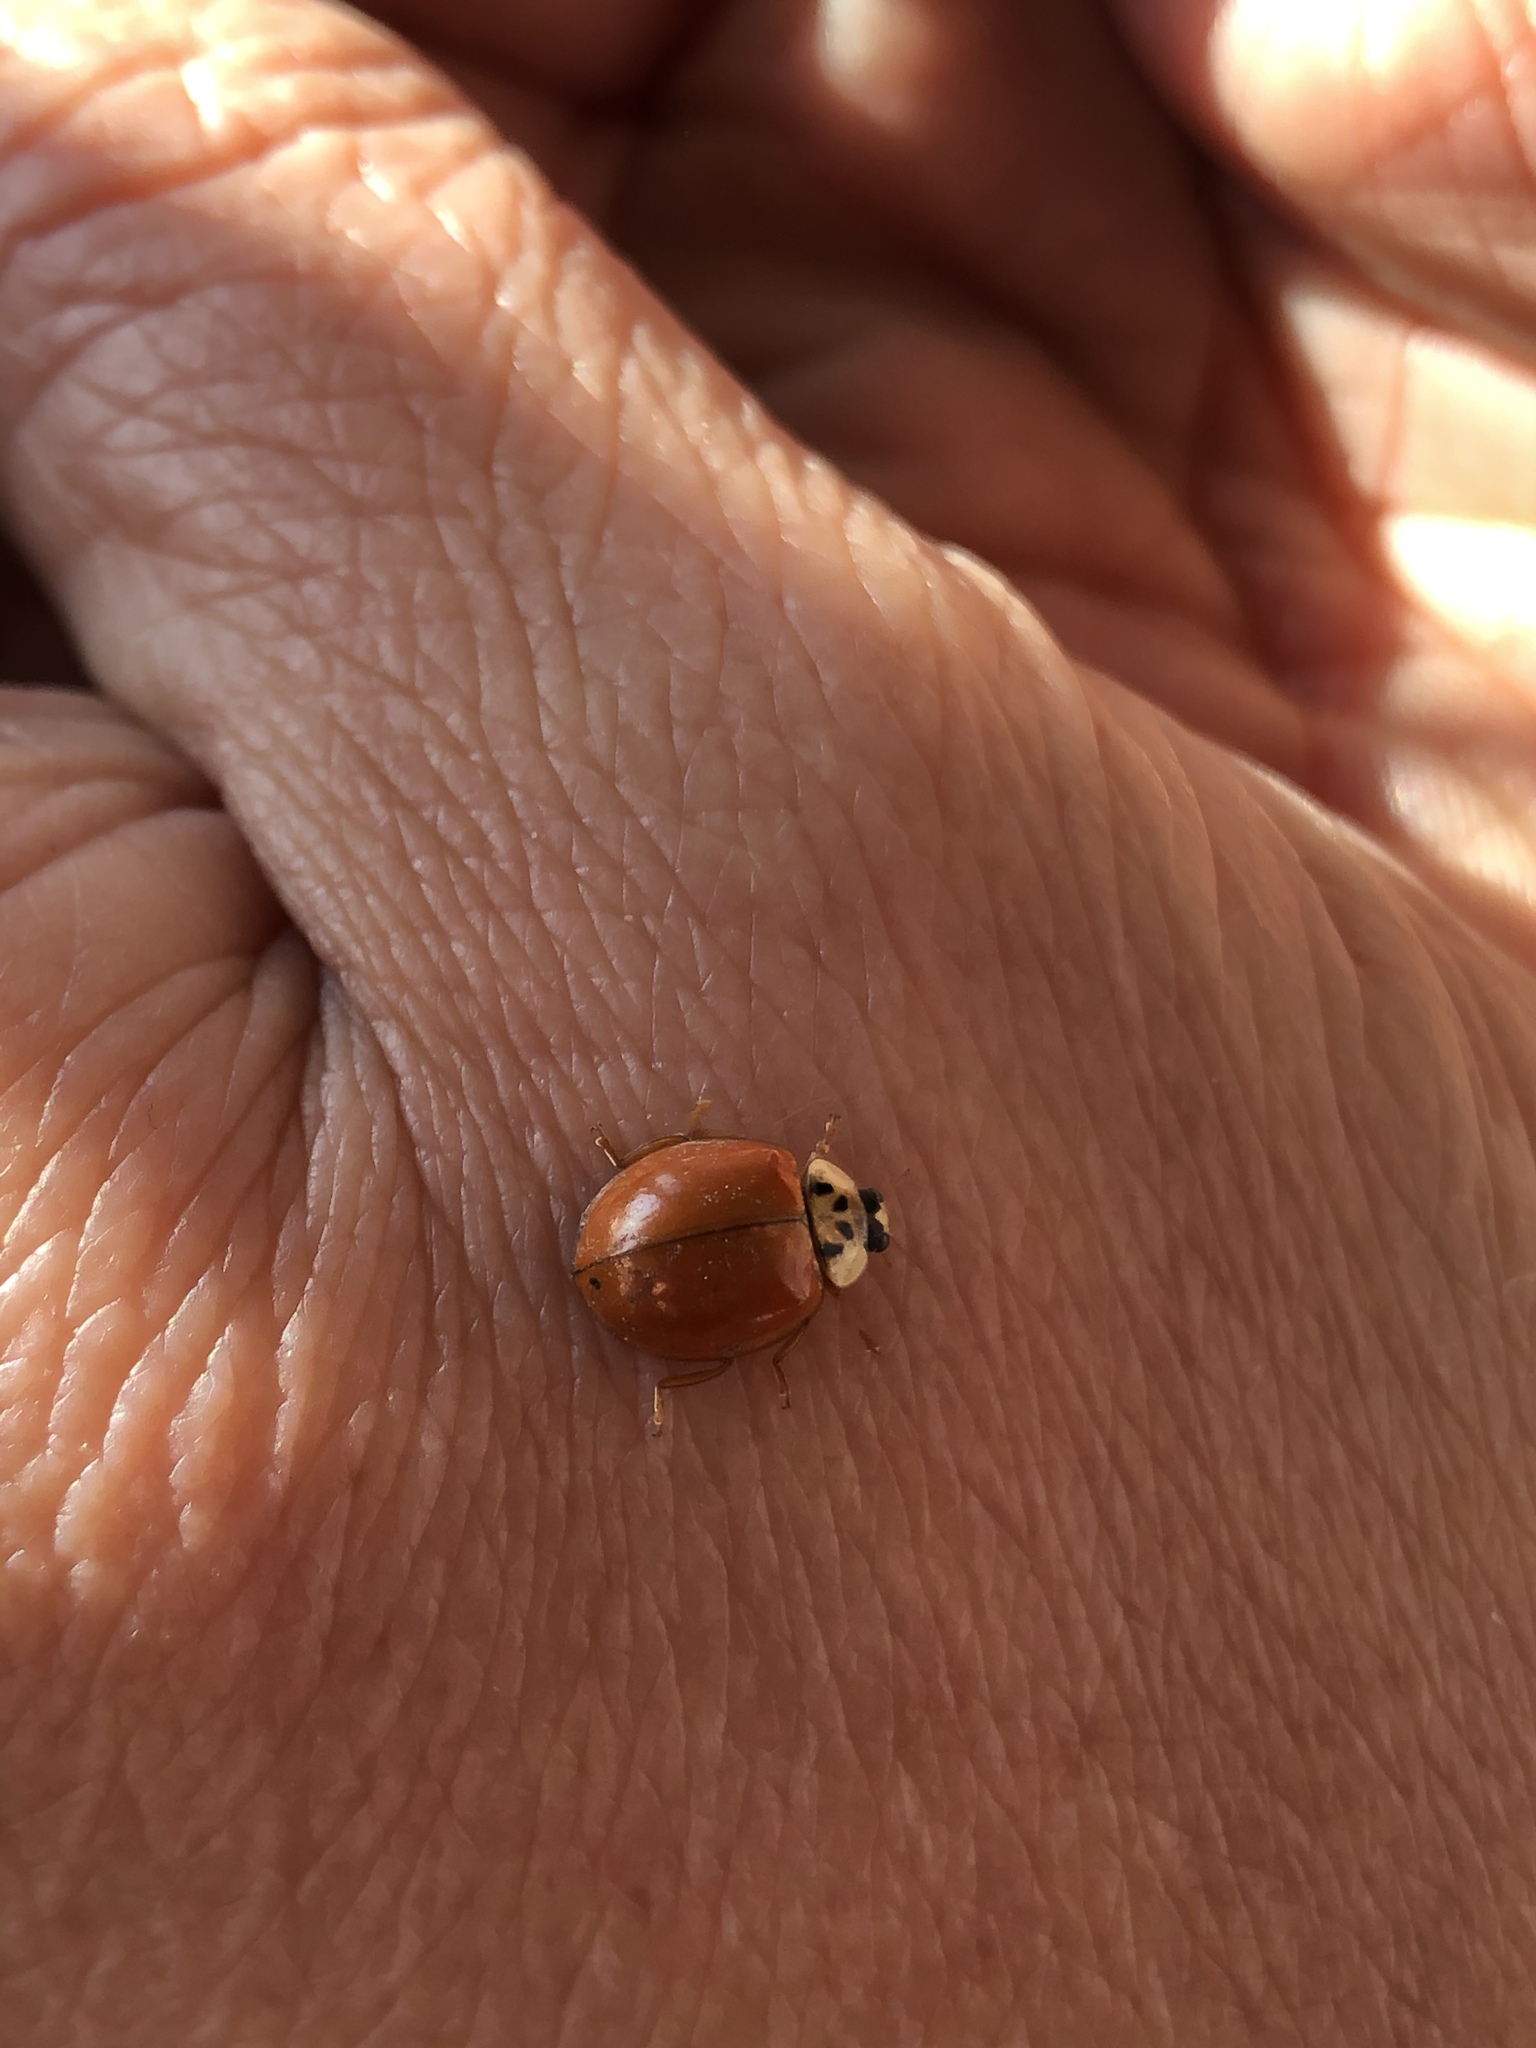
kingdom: Animalia
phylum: Arthropoda
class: Insecta
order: Coleoptera
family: Coccinellidae
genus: Harmonia
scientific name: Harmonia axyridis
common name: Harlequin ladybird
